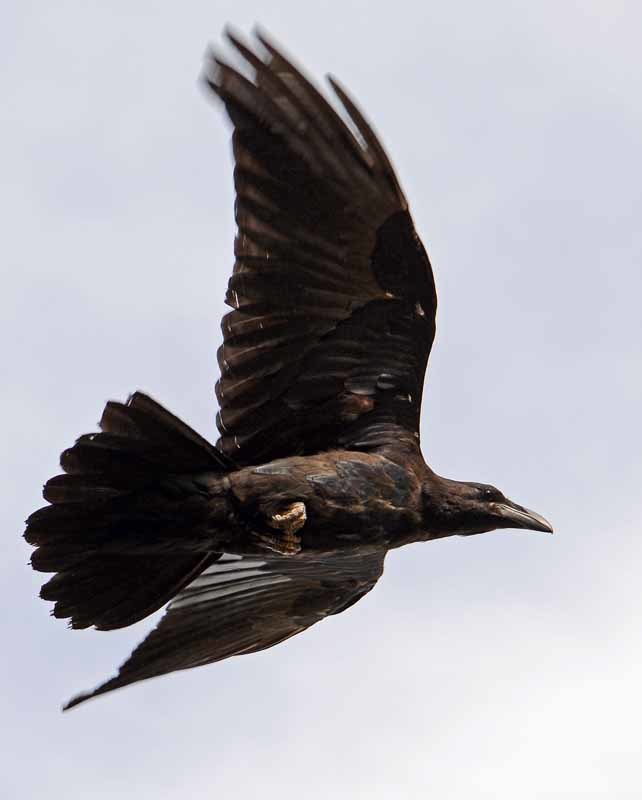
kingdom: Animalia
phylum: Chordata
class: Aves
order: Passeriformes
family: Corvidae
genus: Corvus
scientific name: Corvus corax
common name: Common raven
